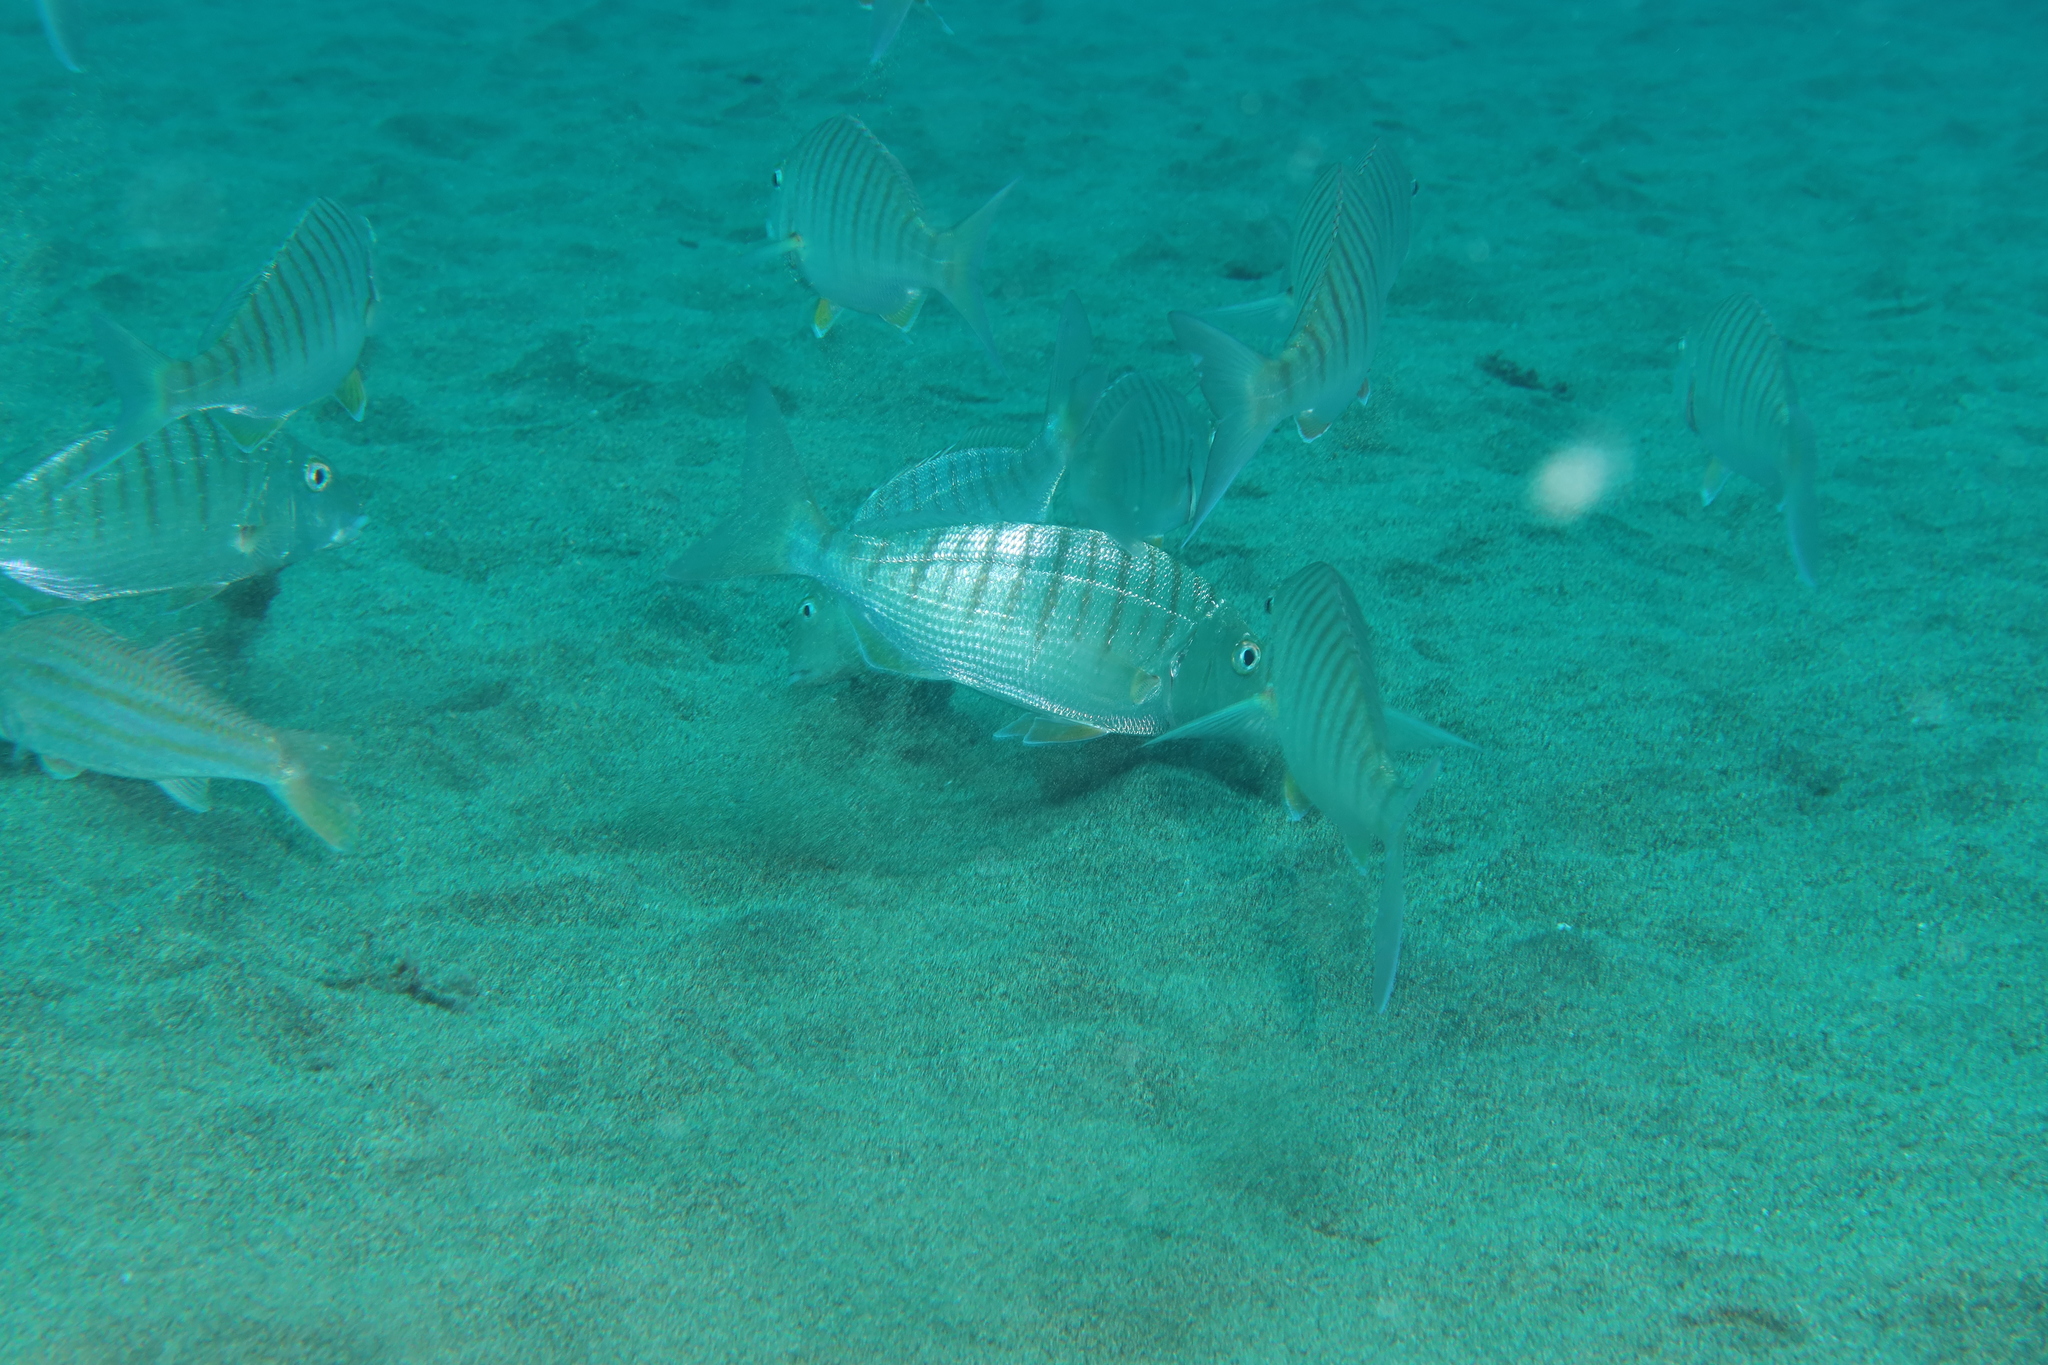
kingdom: Animalia
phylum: Chordata
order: Perciformes
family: Sparidae
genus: Lithognathus
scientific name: Lithognathus mormyrus
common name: Sand steenbras
